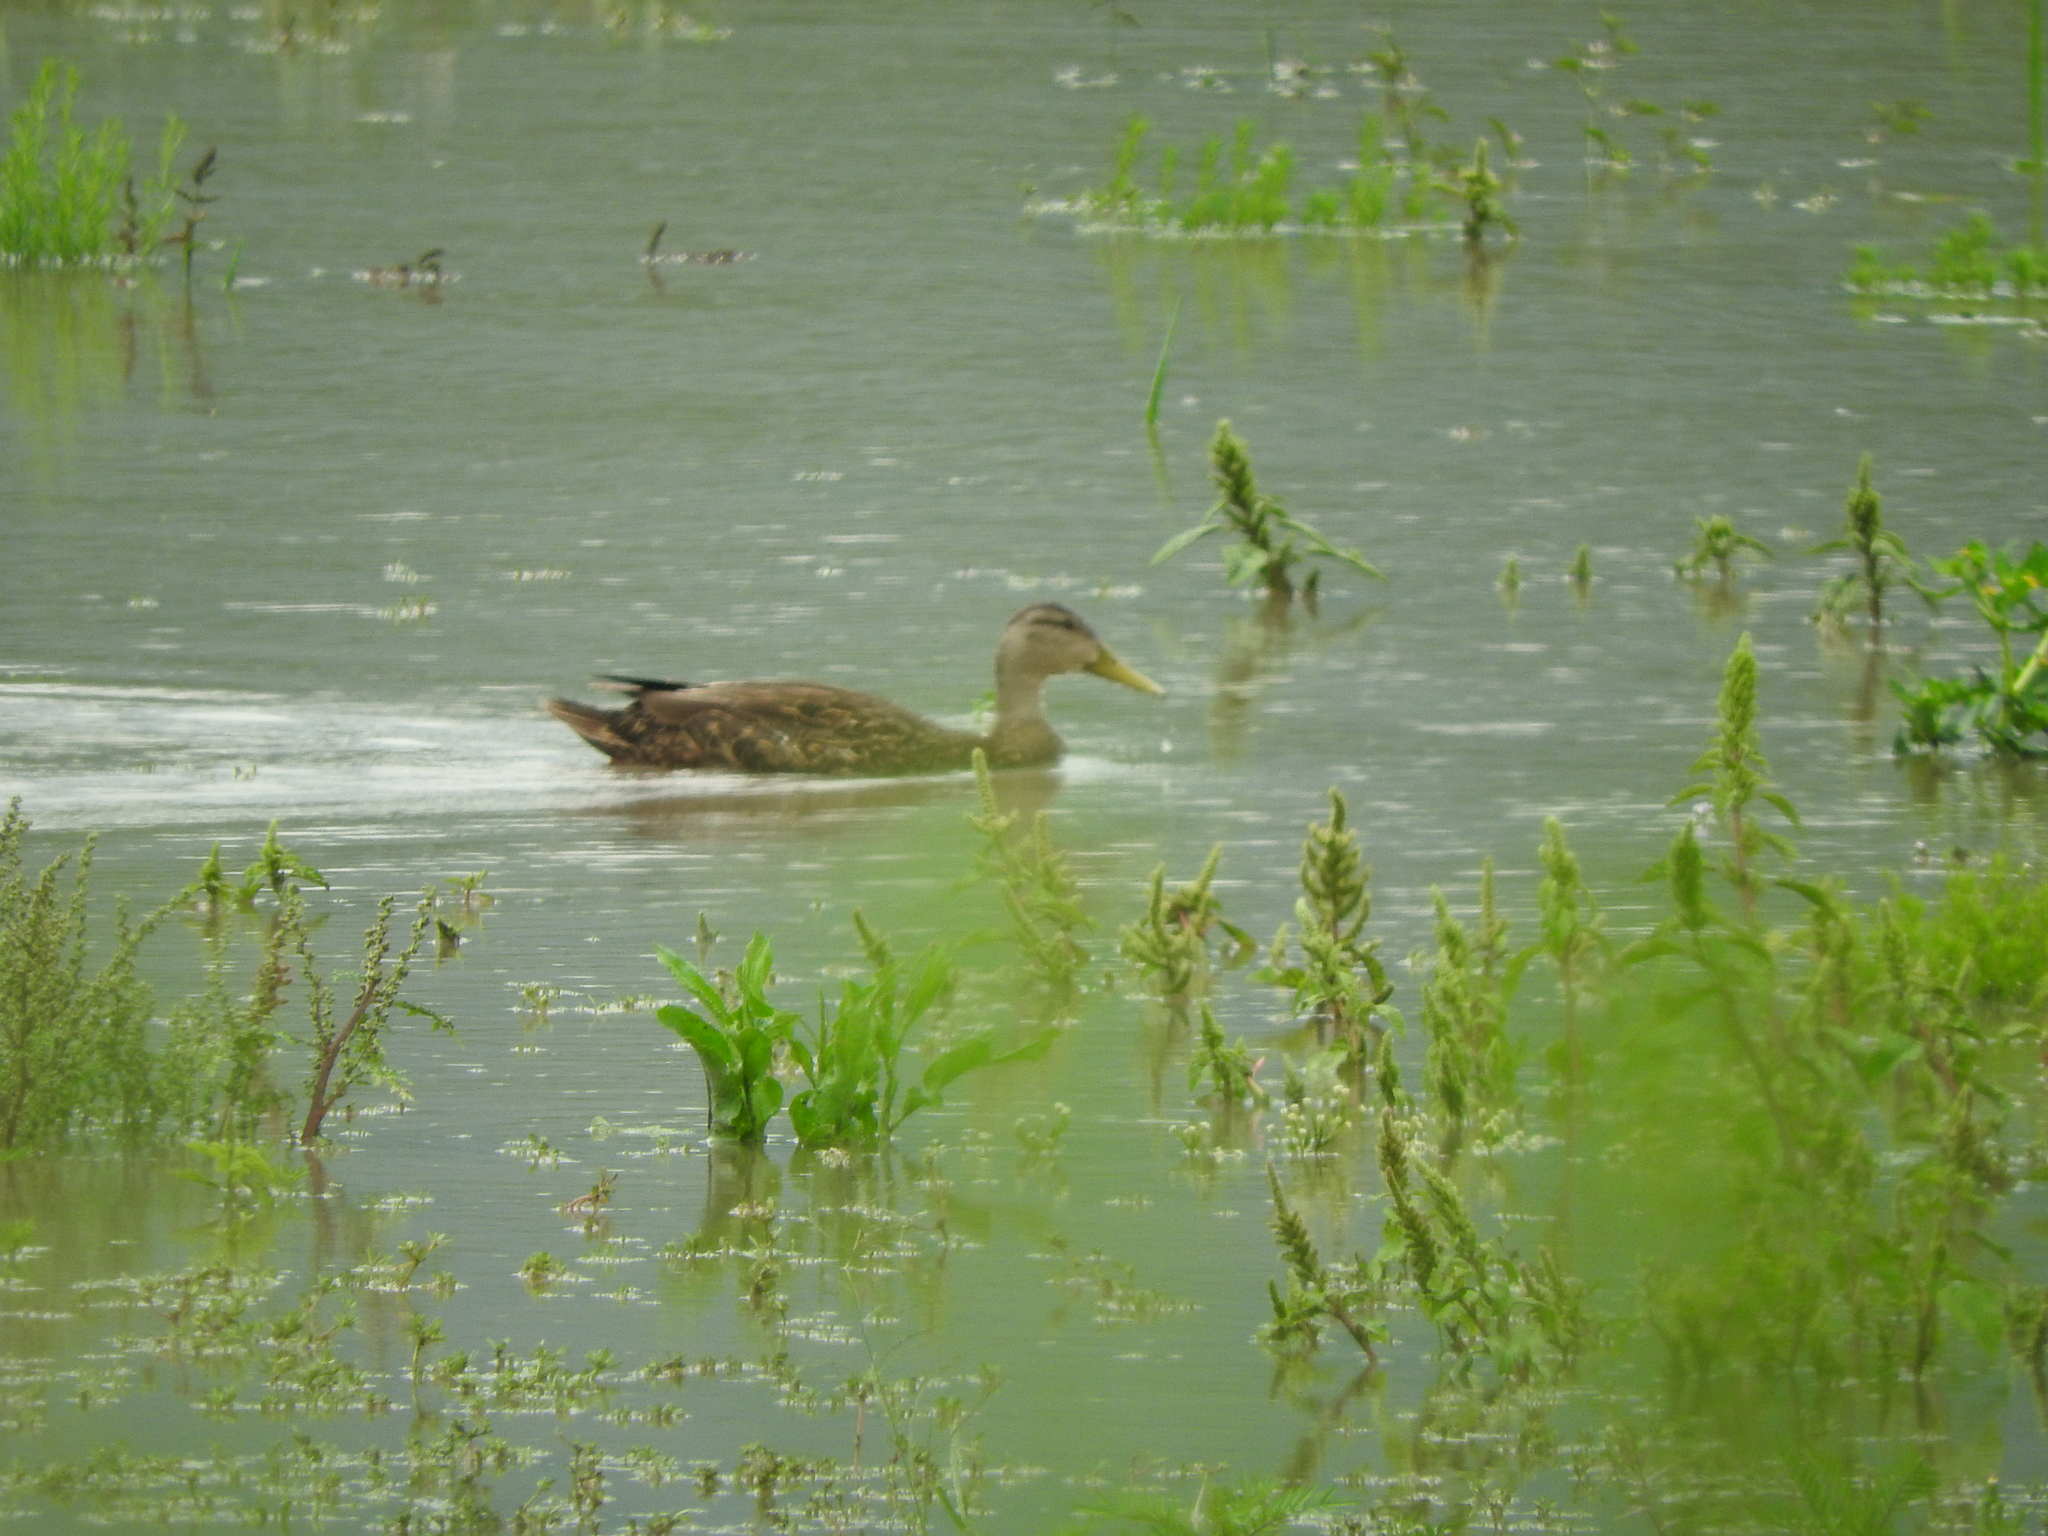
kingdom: Animalia
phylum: Chordata
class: Aves
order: Anseriformes
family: Anatidae
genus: Anas
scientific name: Anas diazi
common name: Mexican duck
